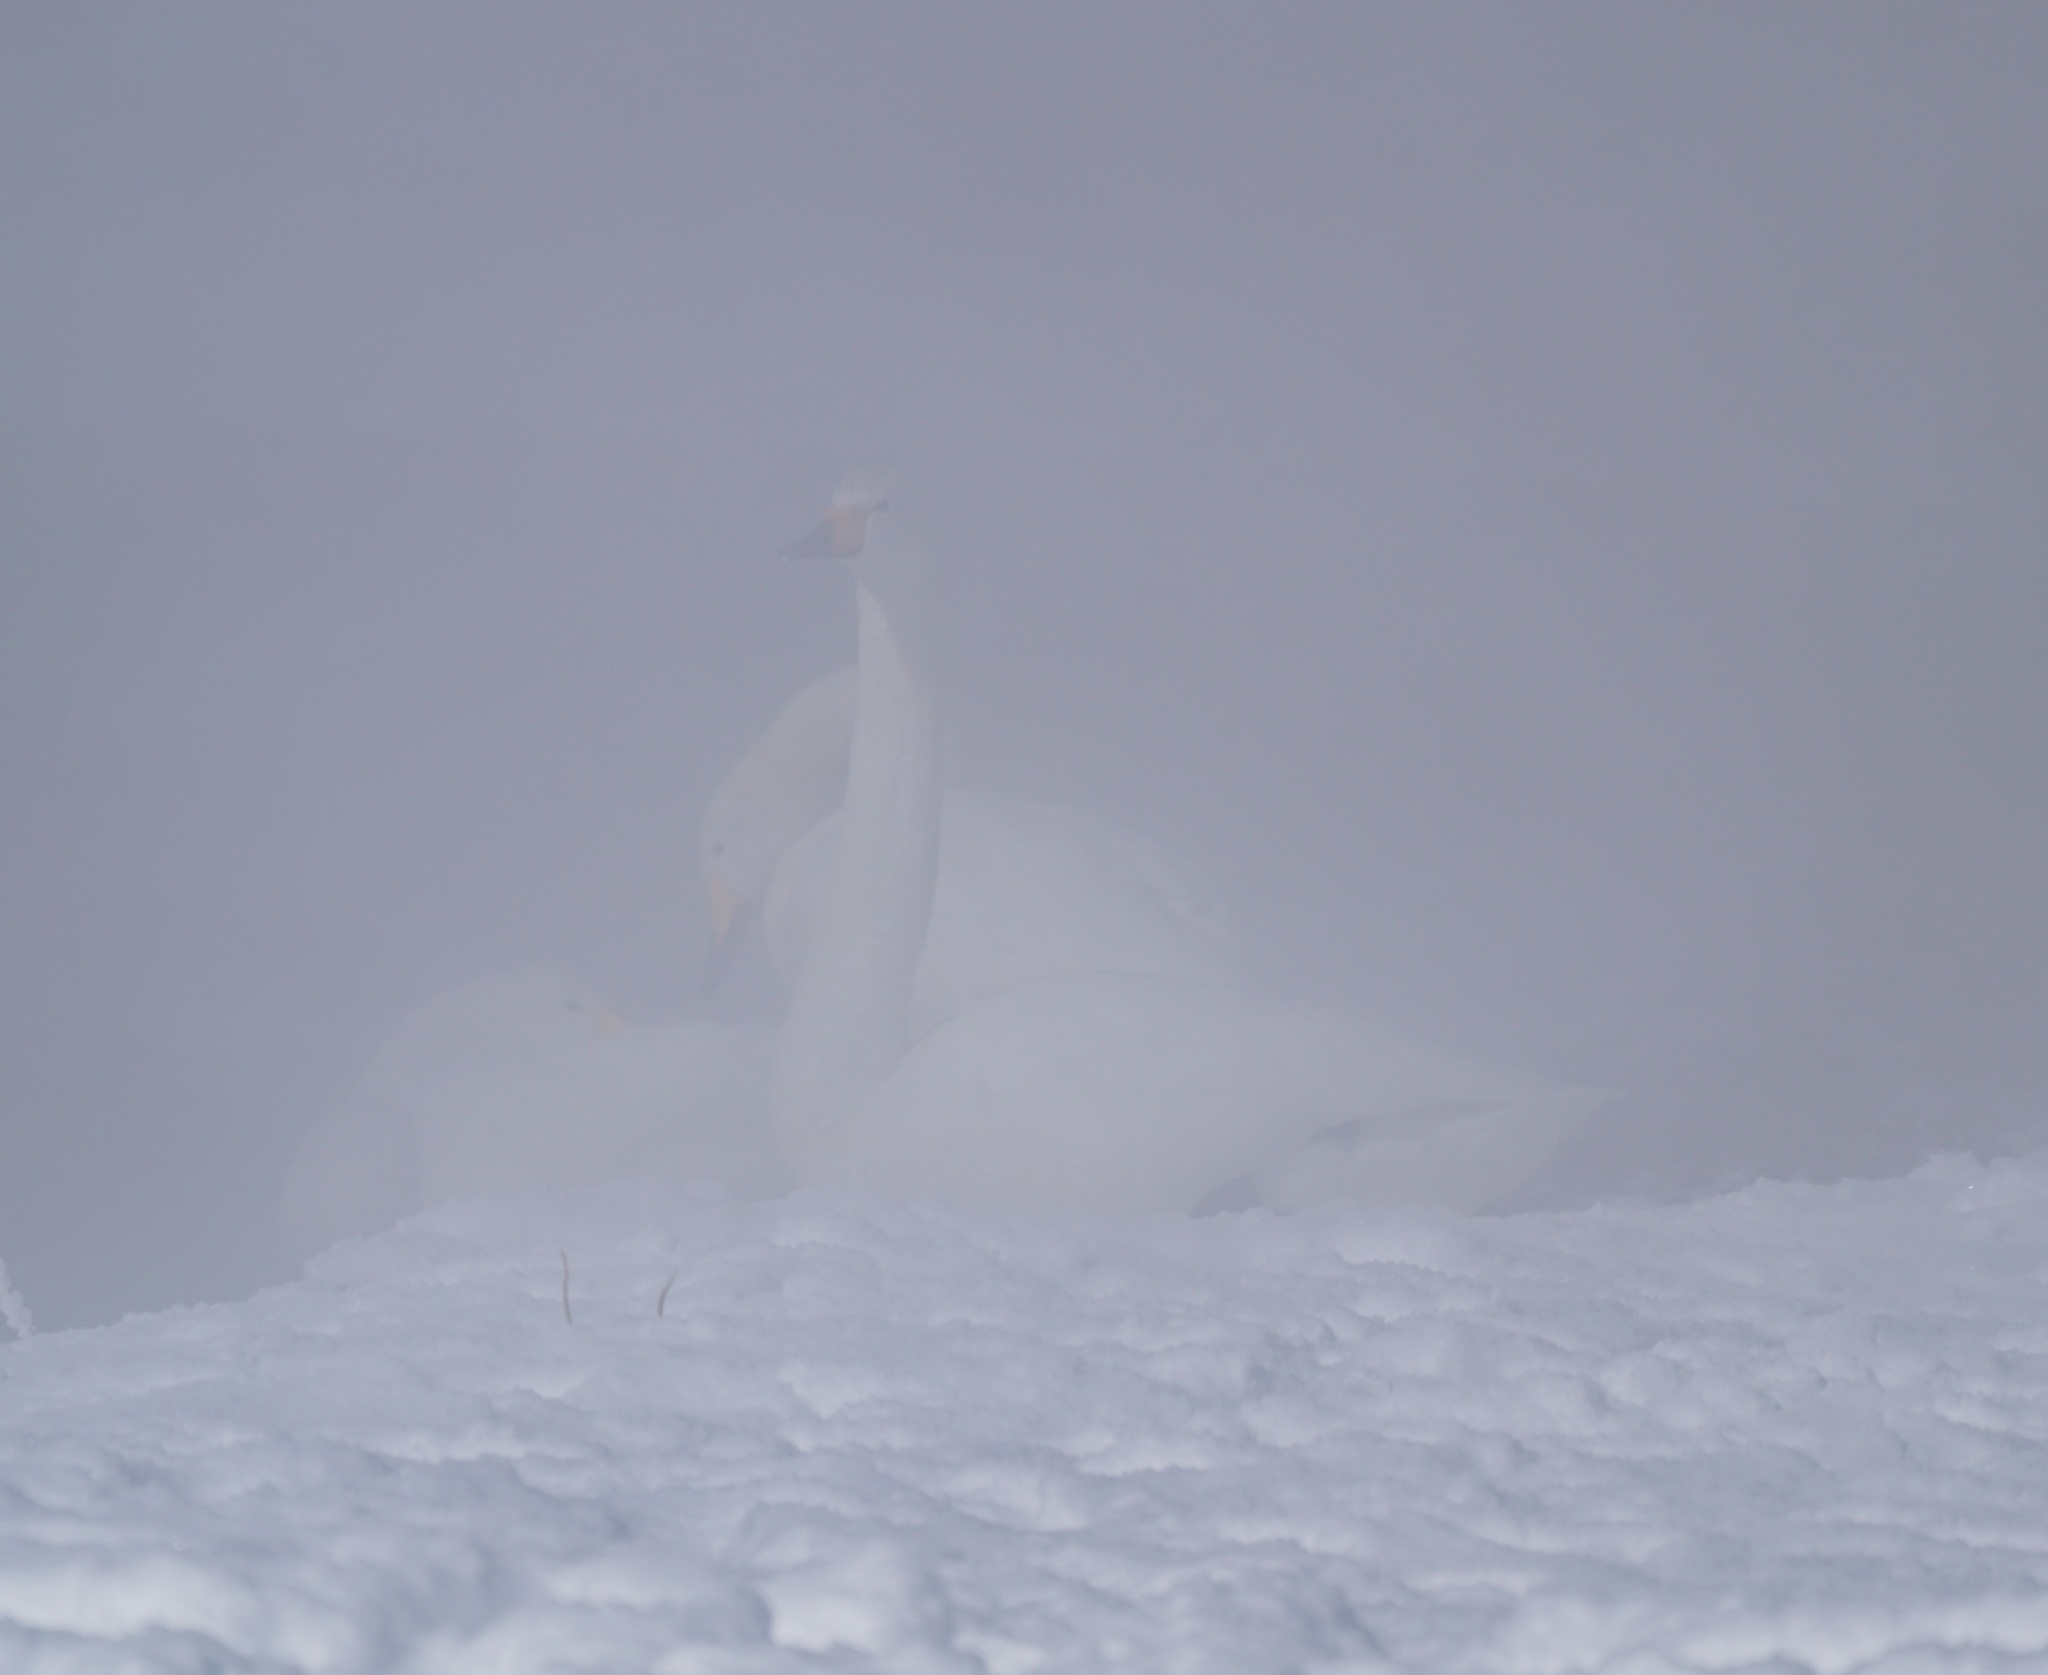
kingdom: Animalia
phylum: Chordata
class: Aves
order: Anseriformes
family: Anatidae
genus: Cygnus
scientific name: Cygnus cygnus
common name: Whooper swan
